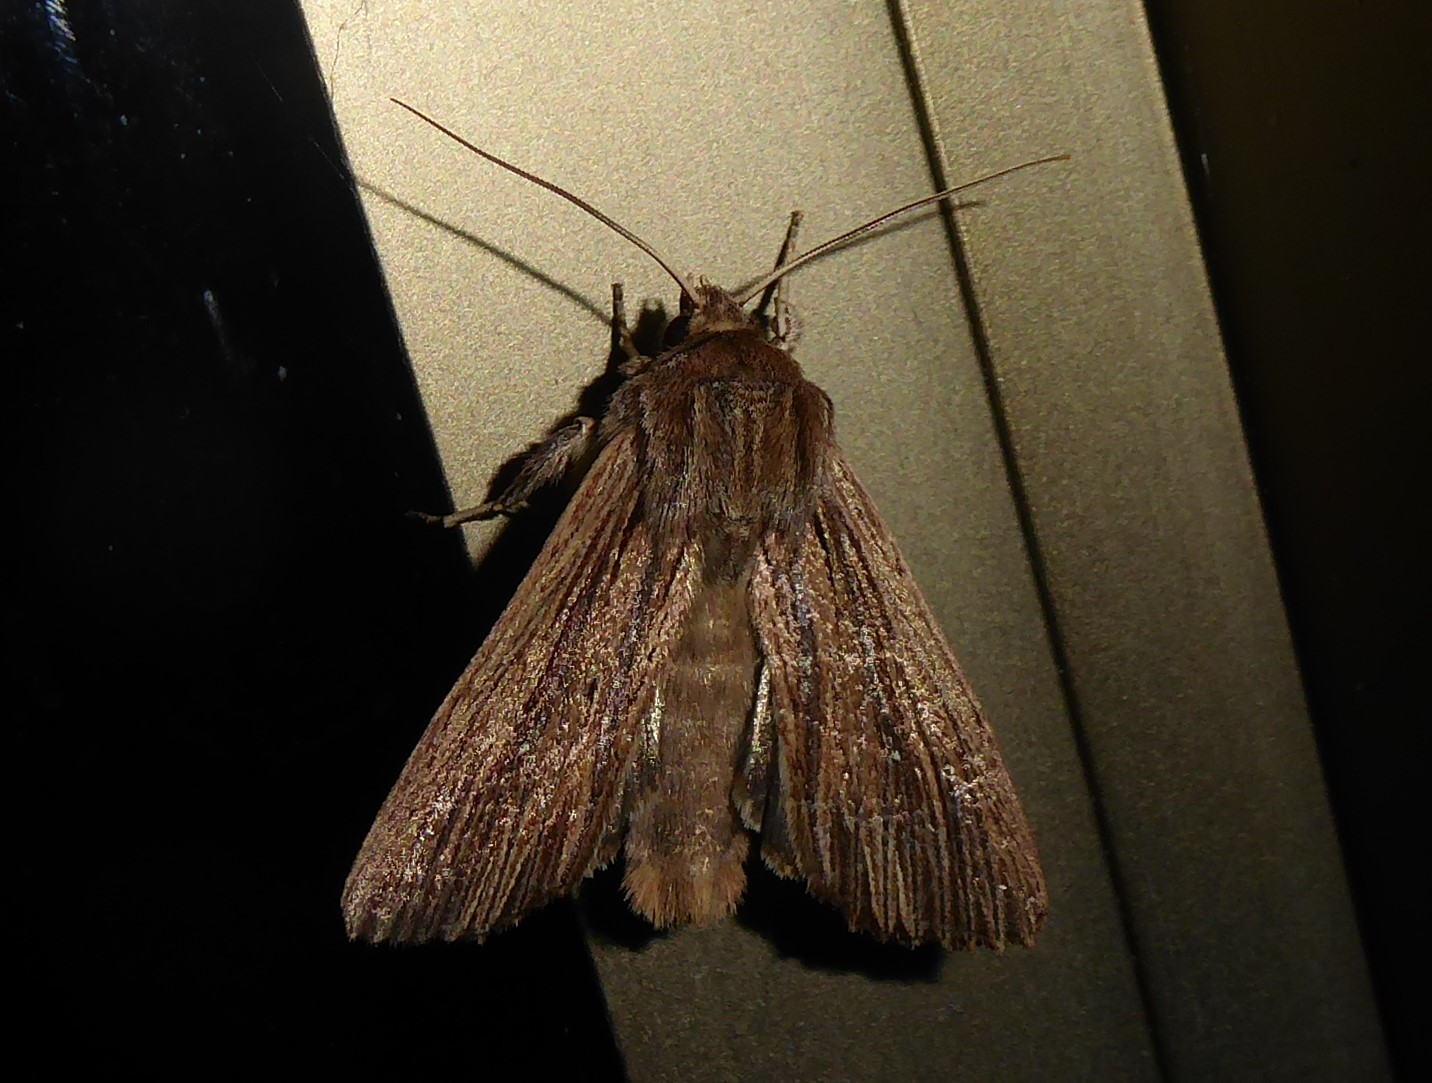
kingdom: Animalia
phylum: Arthropoda
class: Insecta
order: Lepidoptera
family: Noctuidae
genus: Ichneutica
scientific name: Ichneutica
